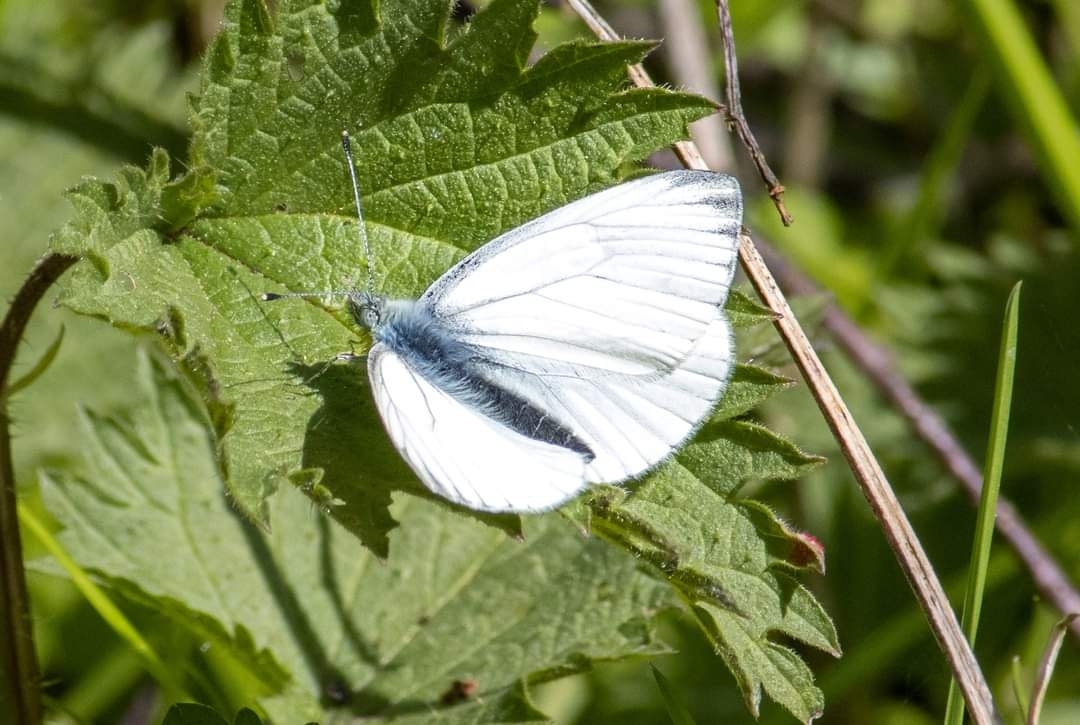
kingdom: Animalia
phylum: Arthropoda
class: Insecta
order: Lepidoptera
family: Pieridae
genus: Pieris
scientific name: Pieris napi
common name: Green-veined white
